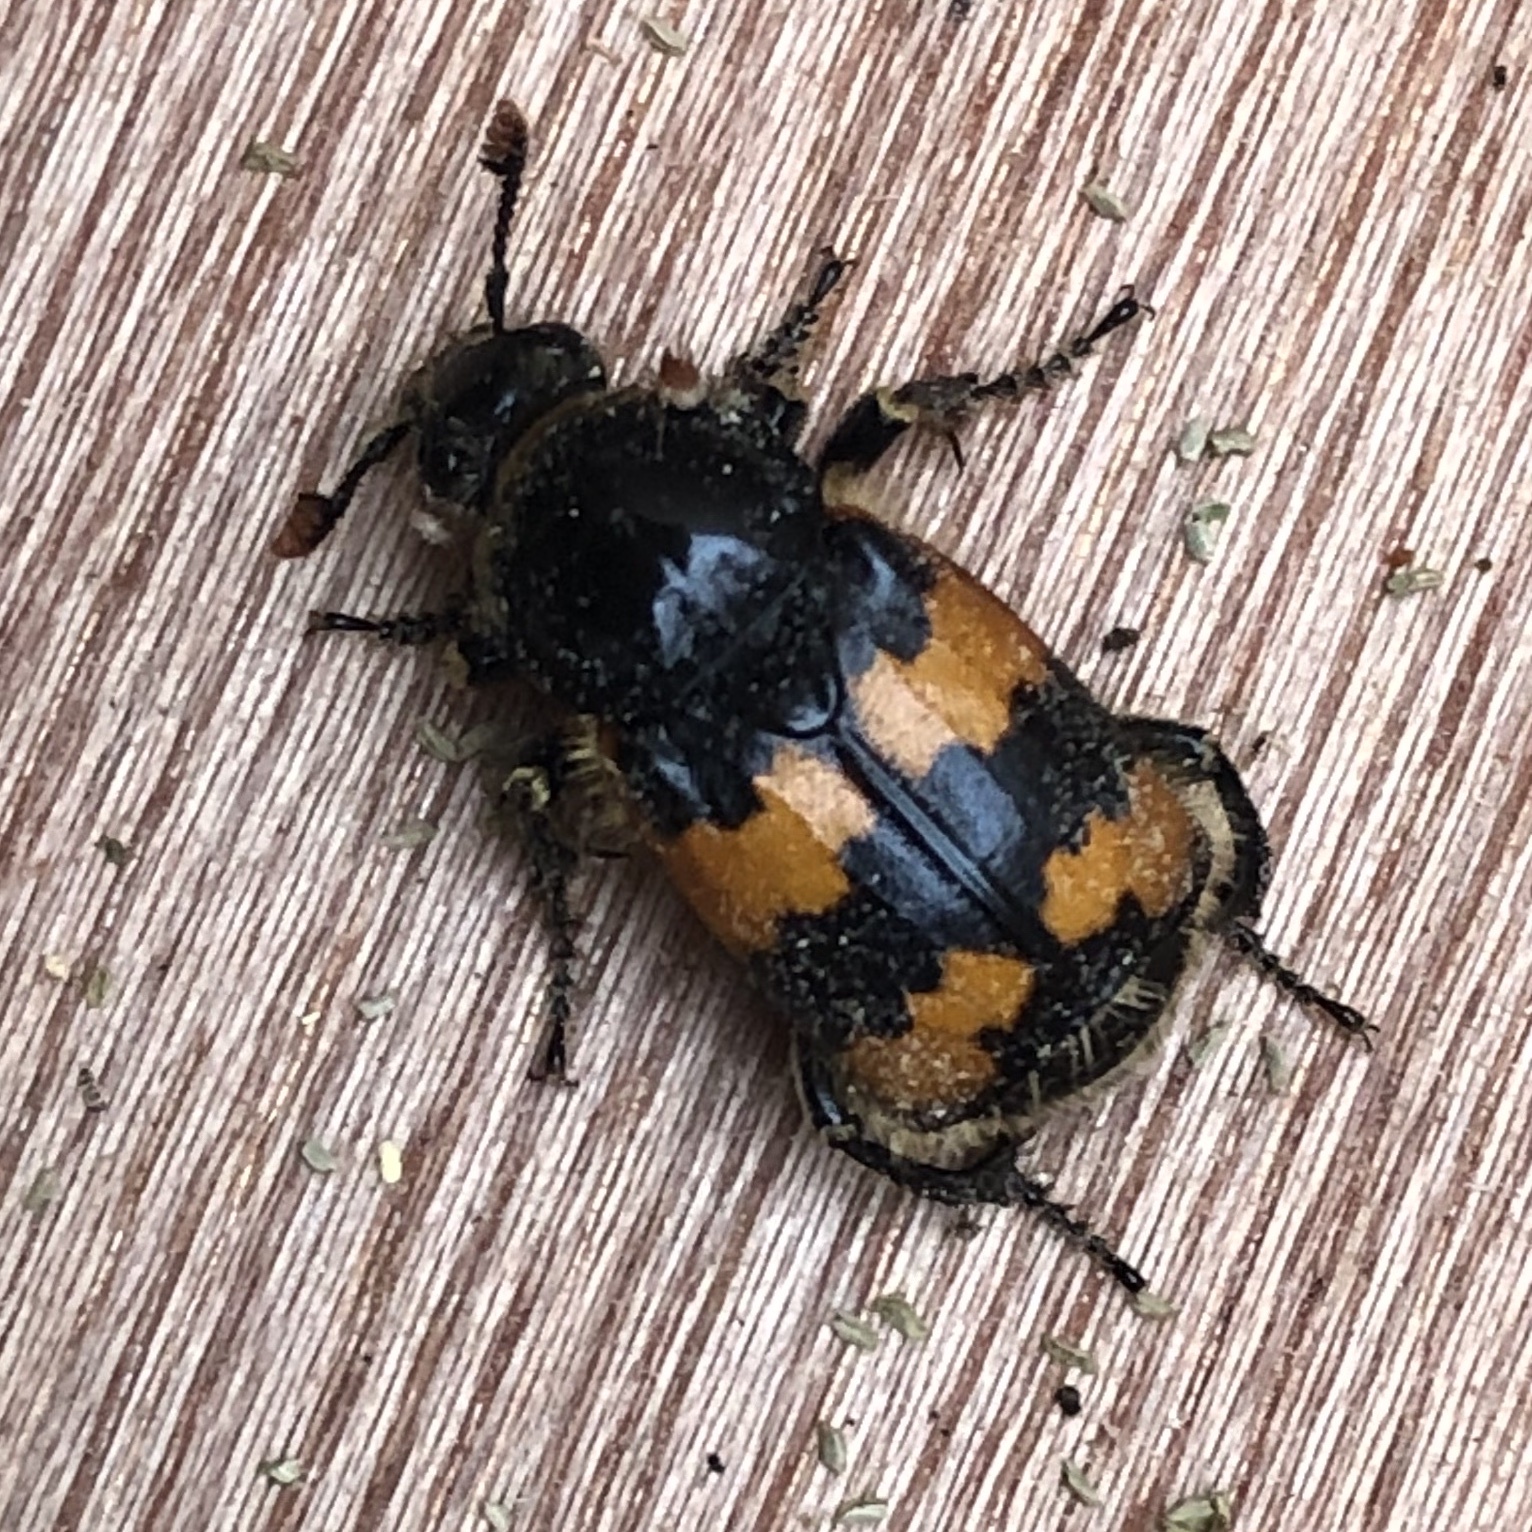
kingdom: Animalia
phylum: Arthropoda
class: Insecta
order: Coleoptera
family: Staphylinidae
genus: Nicrophorus
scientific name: Nicrophorus vespillo
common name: Common burying beetle
